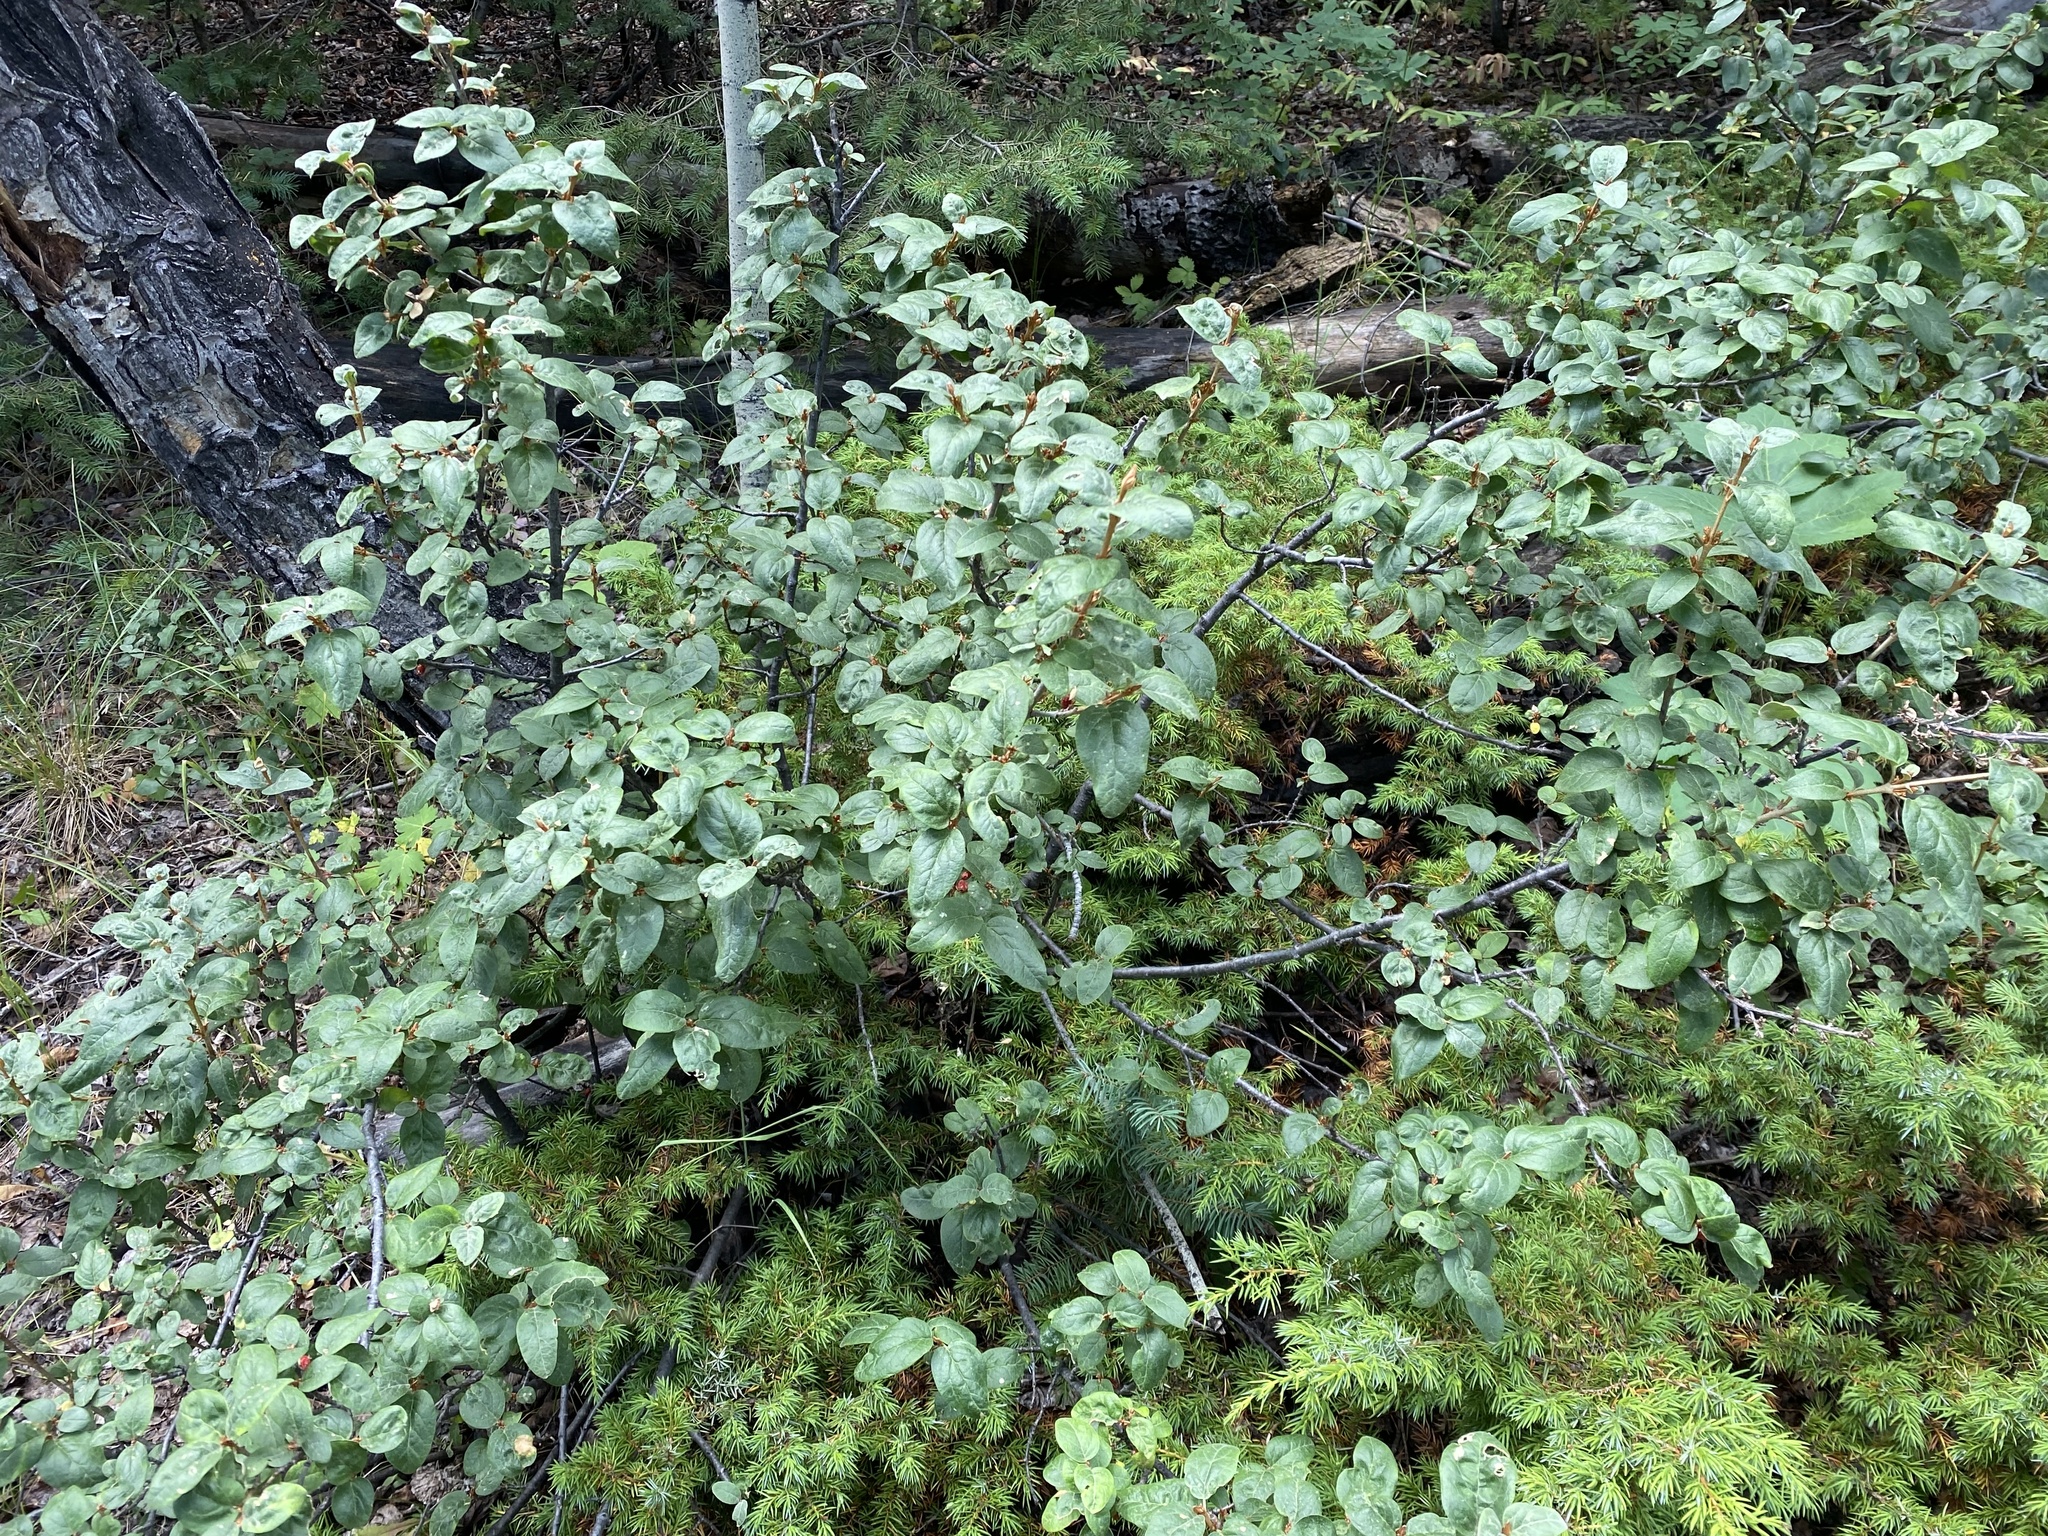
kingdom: Plantae
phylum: Tracheophyta
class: Magnoliopsida
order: Rosales
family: Elaeagnaceae
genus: Shepherdia
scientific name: Shepherdia canadensis
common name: Soapberry
